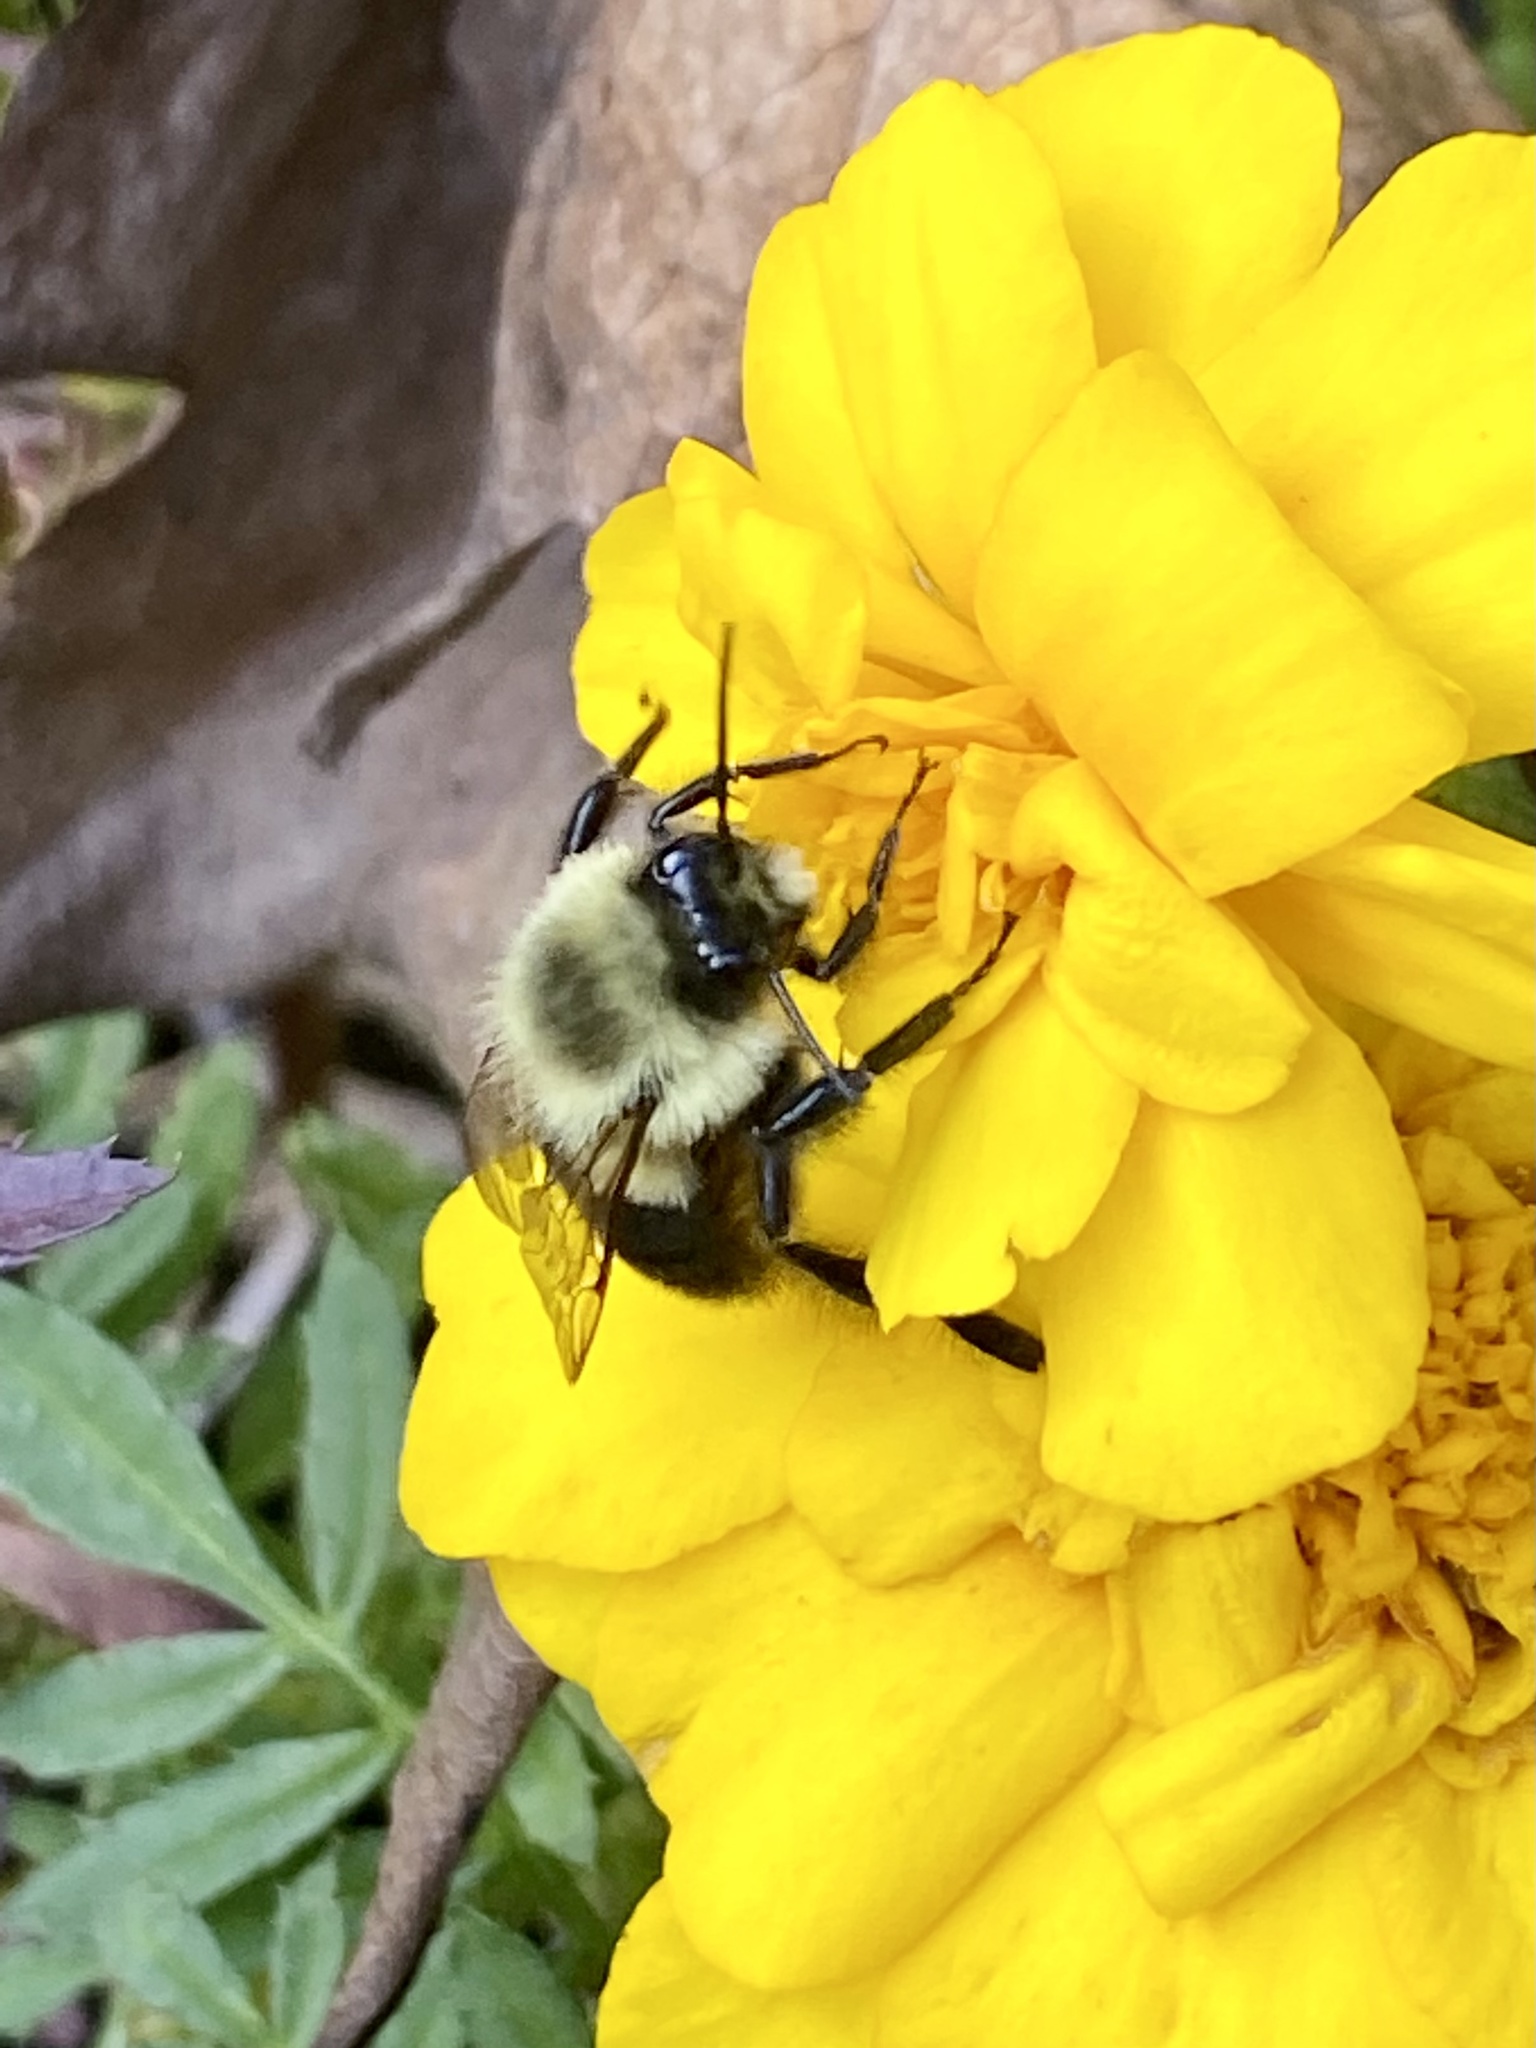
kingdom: Animalia
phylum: Arthropoda
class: Insecta
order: Hymenoptera
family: Apidae
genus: Bombus
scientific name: Bombus impatiens
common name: Common eastern bumble bee
